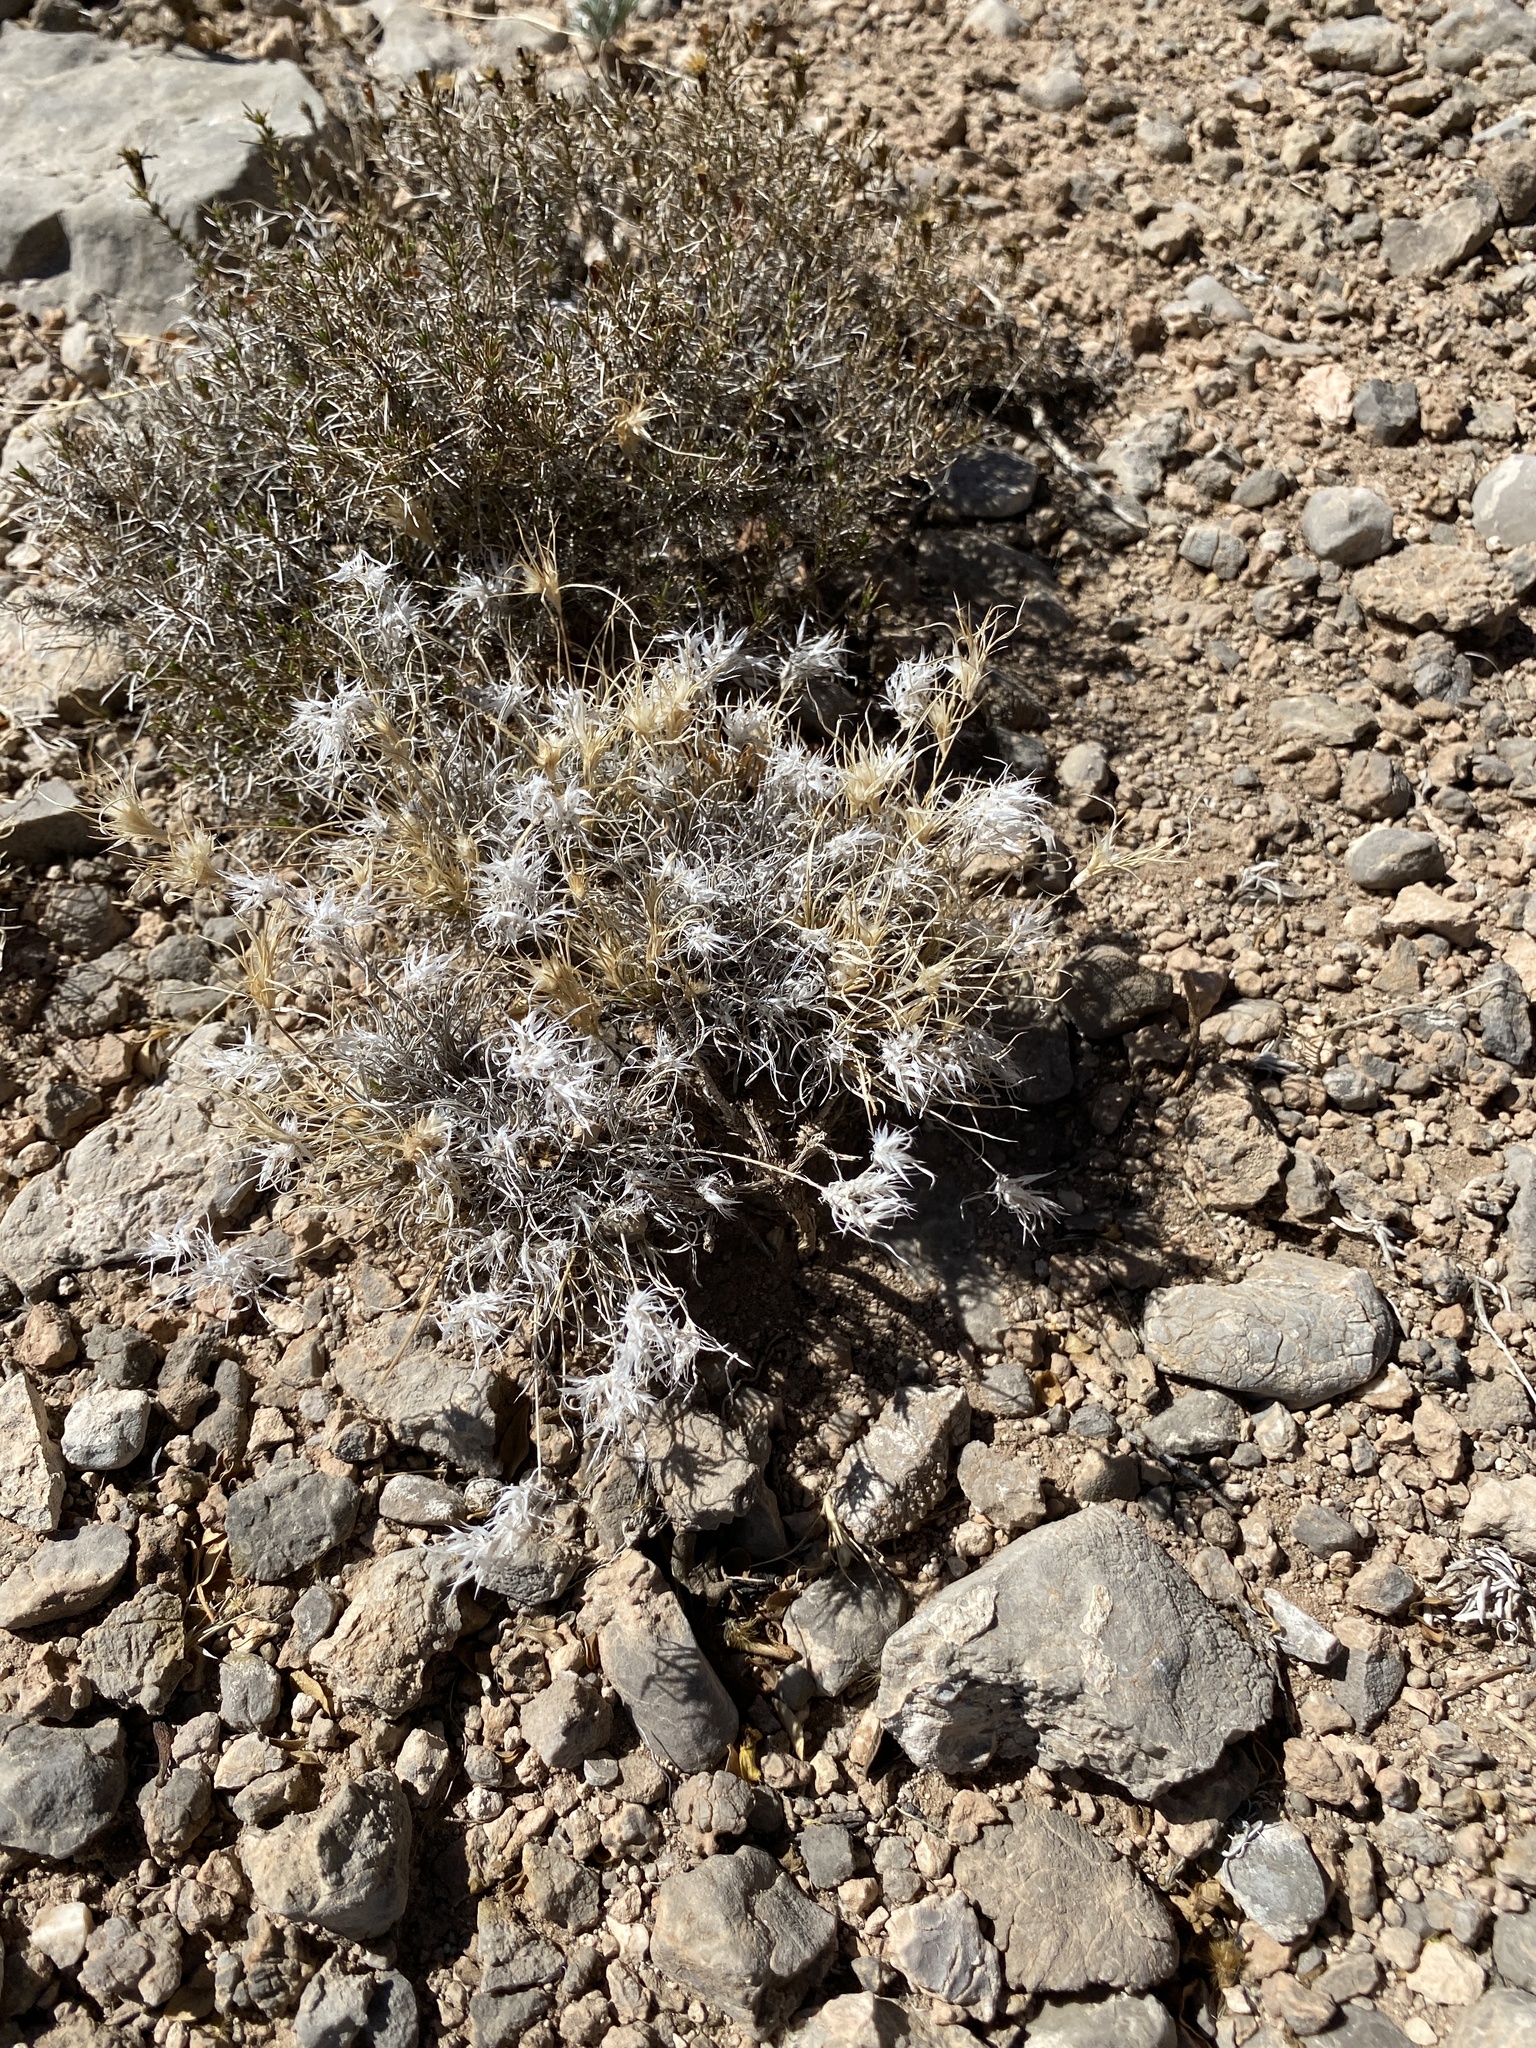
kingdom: Plantae
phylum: Tracheophyta
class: Liliopsida
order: Poales
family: Poaceae
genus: Dasyochloa
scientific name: Dasyochloa pulchella
